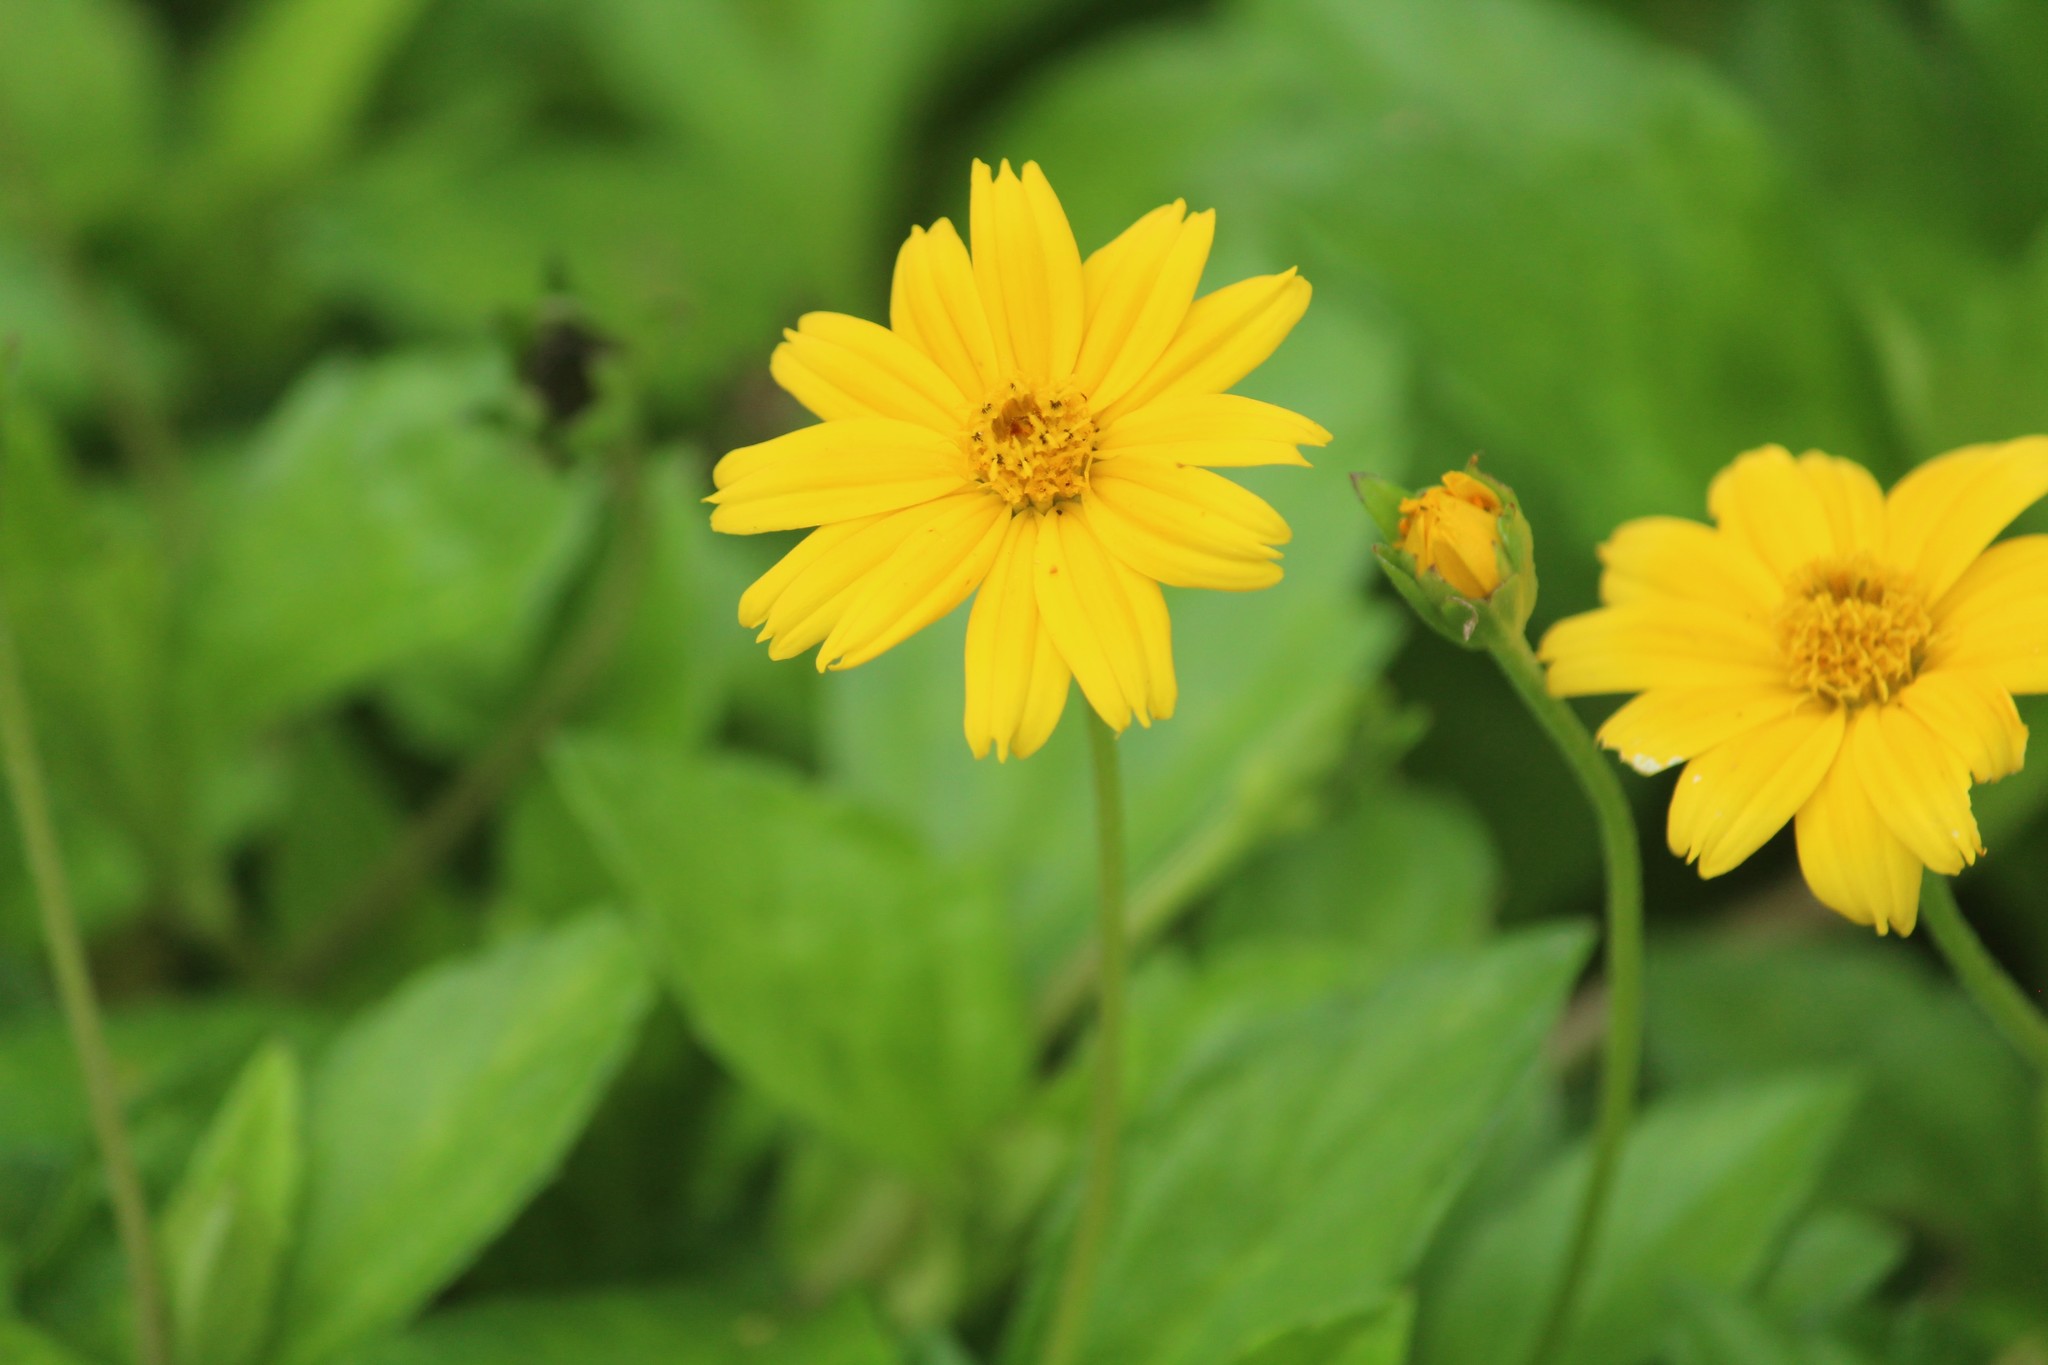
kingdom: Plantae
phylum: Tracheophyta
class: Magnoliopsida
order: Asterales
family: Asteraceae
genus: Sphagneticola
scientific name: Sphagneticola trilobata
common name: Bay biscayne creeping-oxeye
